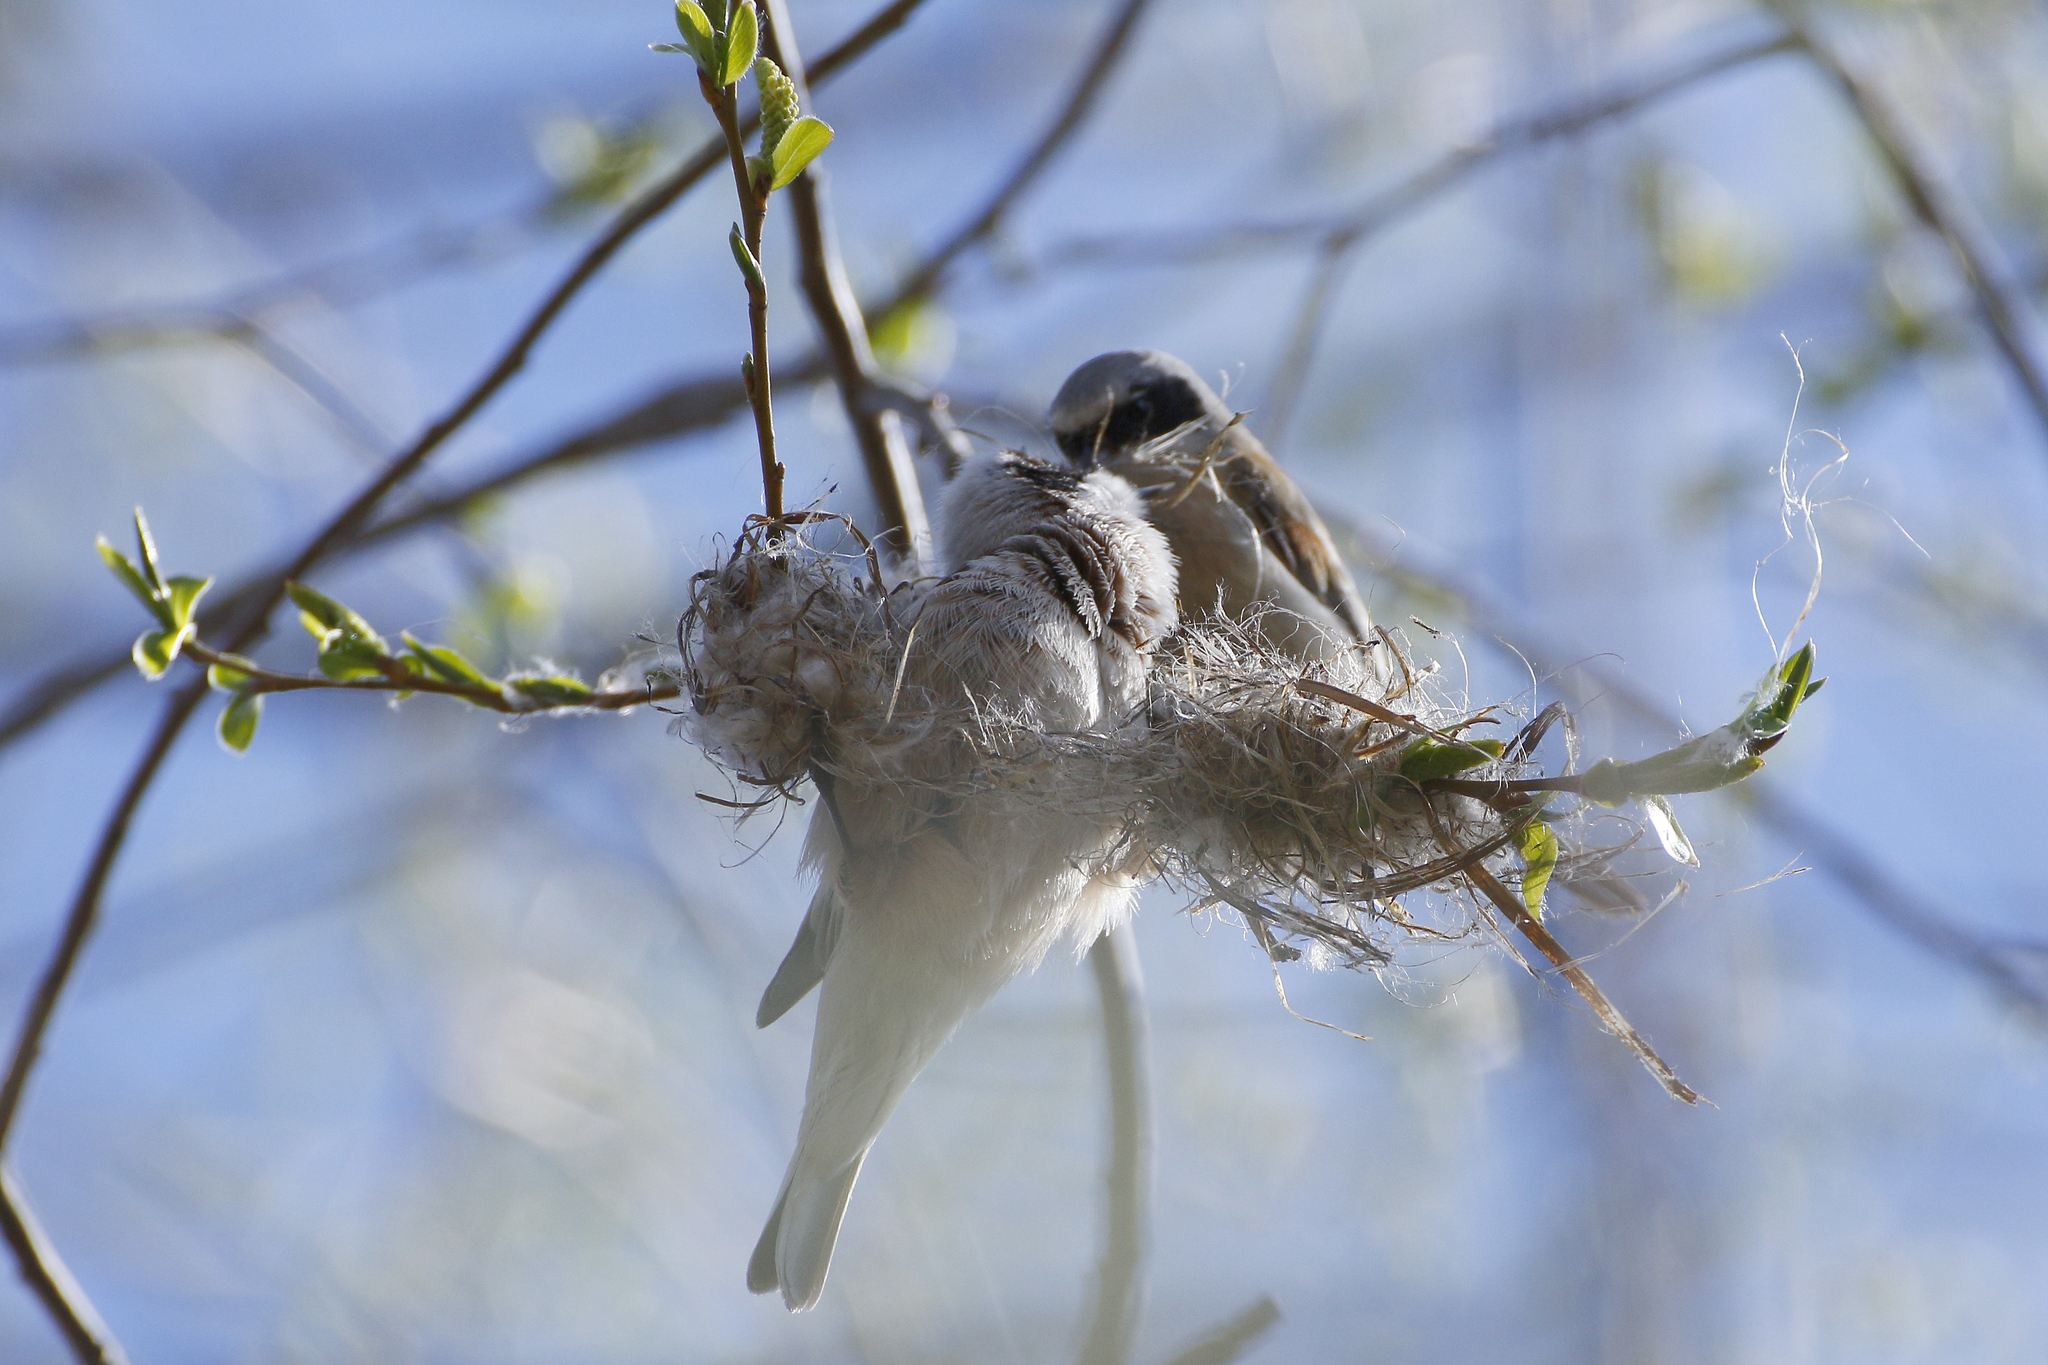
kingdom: Animalia
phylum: Chordata
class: Aves
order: Passeriformes
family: Remizidae
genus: Remiz
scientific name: Remiz pendulinus
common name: Eurasian penduline tit
